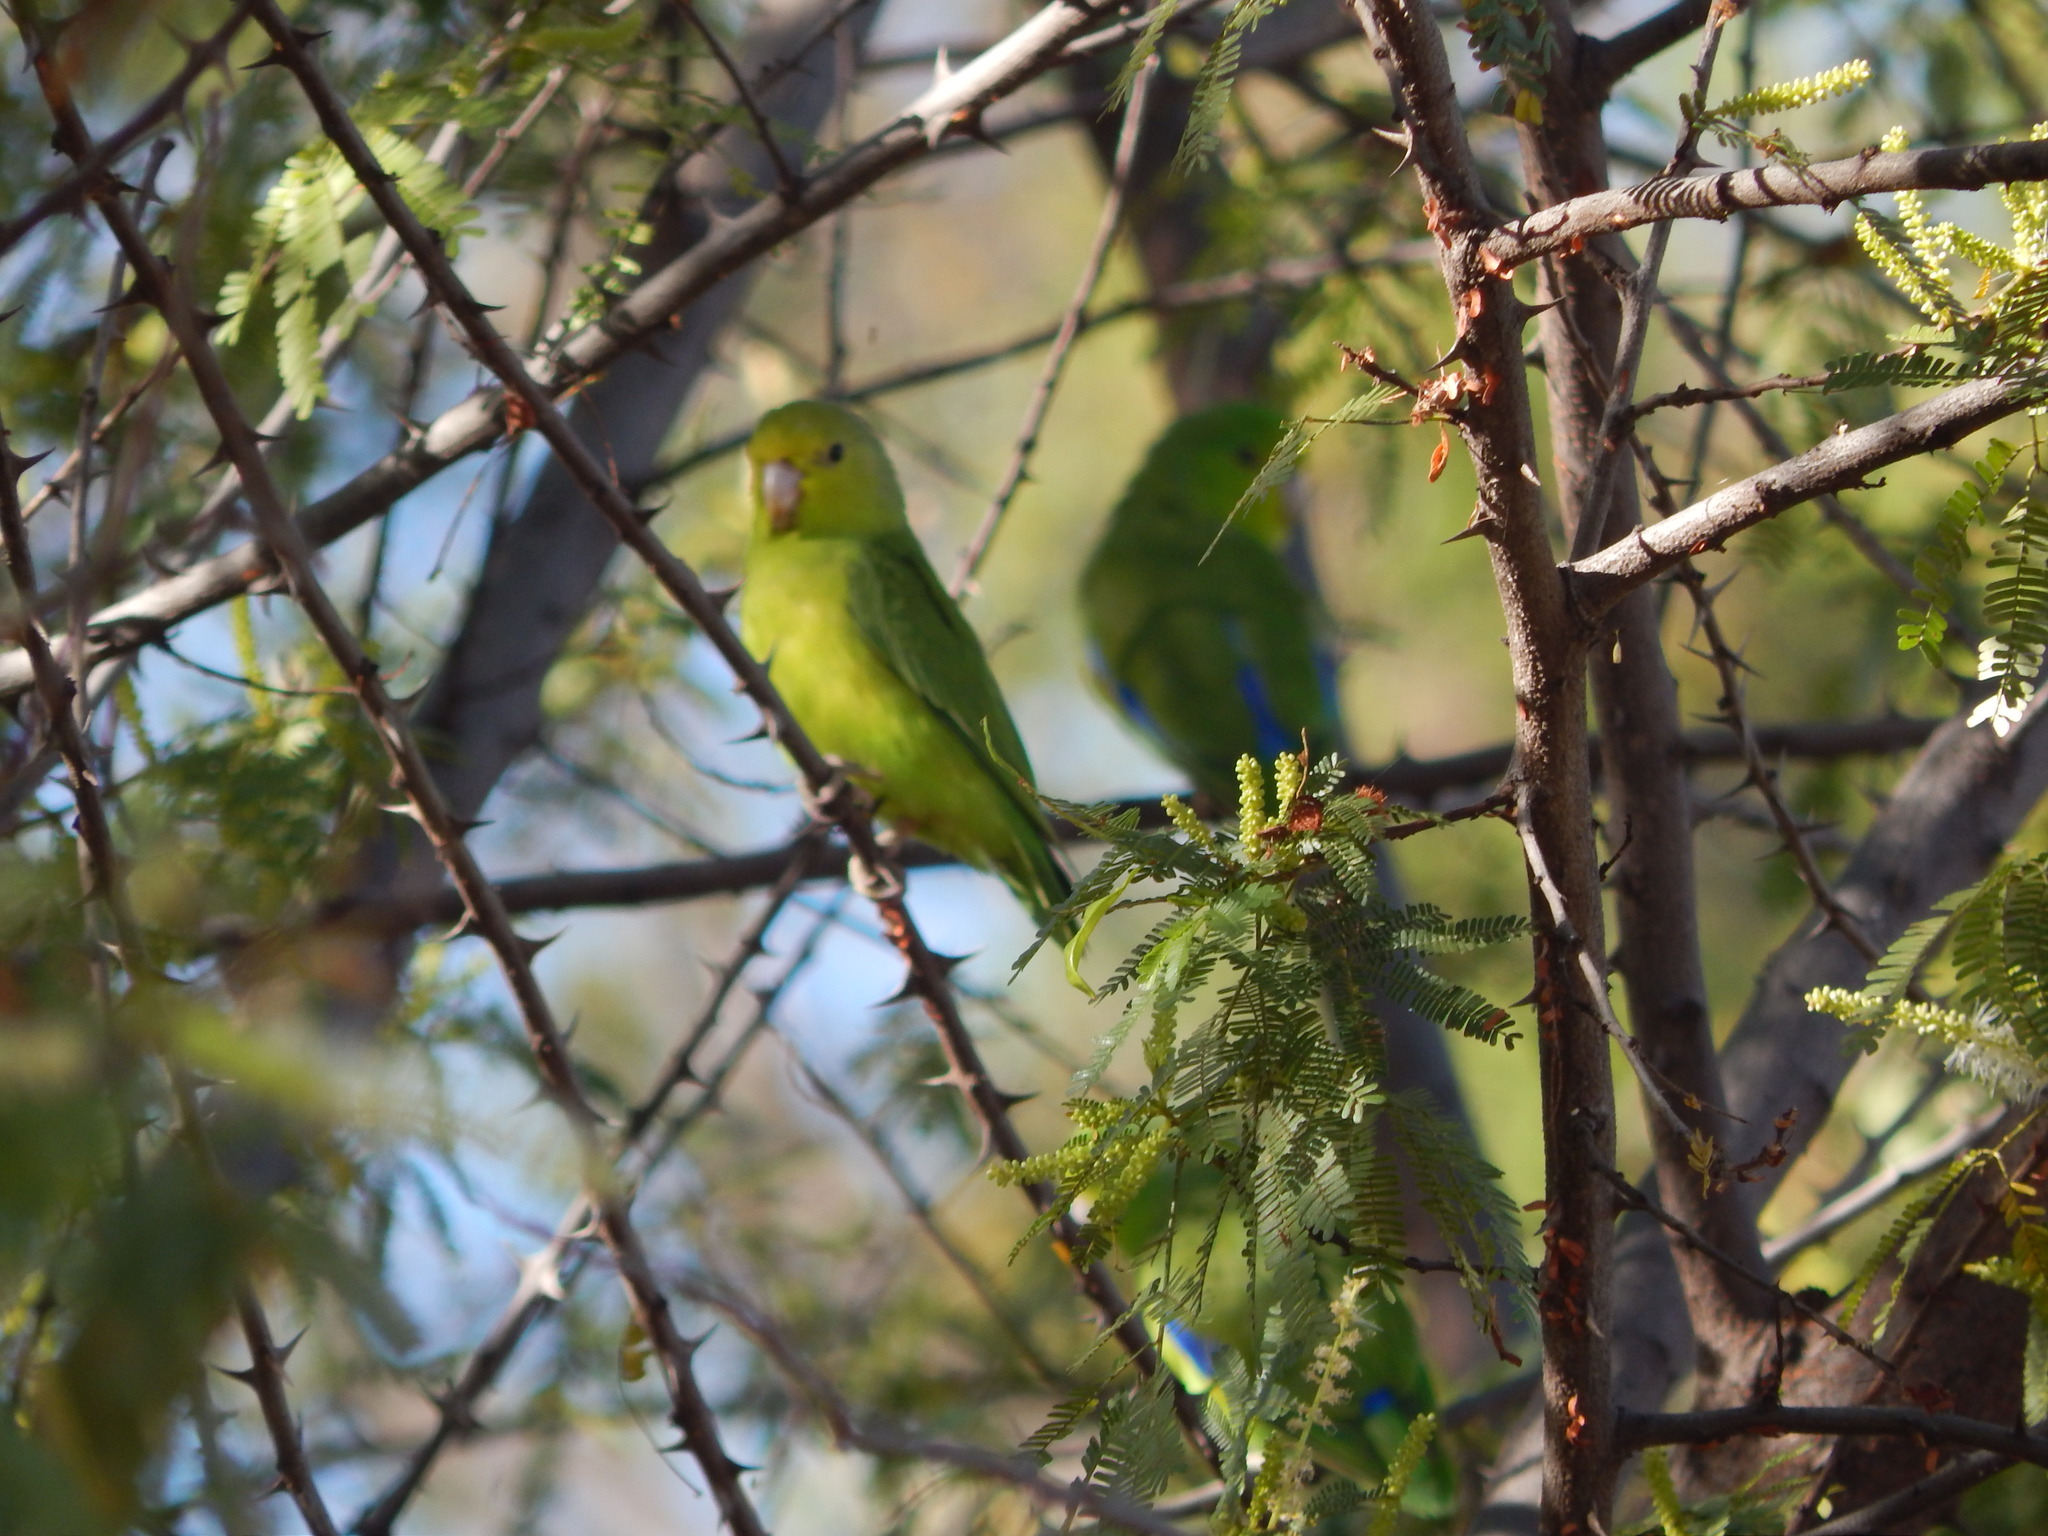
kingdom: Animalia
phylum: Chordata
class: Aves
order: Psittaciformes
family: Psittacidae
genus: Forpus
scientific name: Forpus xanthopterygius
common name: Blue-winged parrotlet
